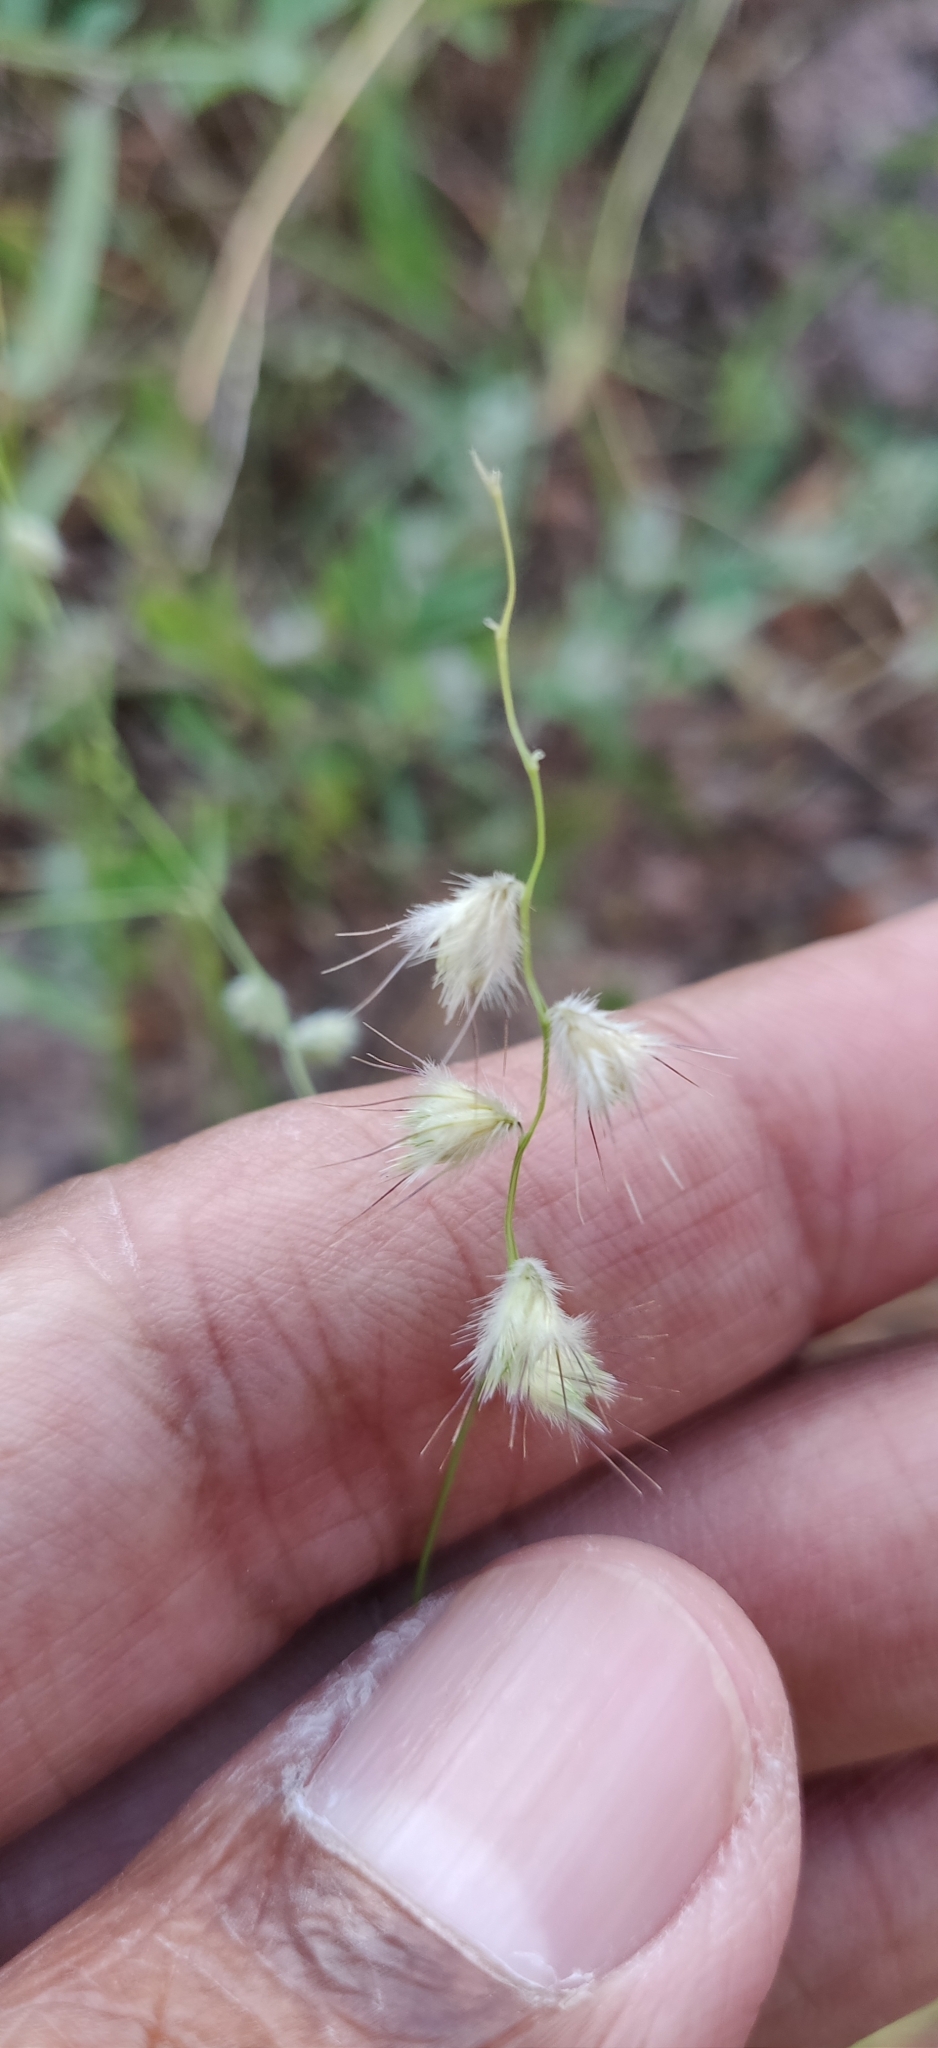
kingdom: Plantae
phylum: Tracheophyta
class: Liliopsida
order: Poales
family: Poaceae
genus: Melanocenchris
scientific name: Melanocenchris jacquemontii
